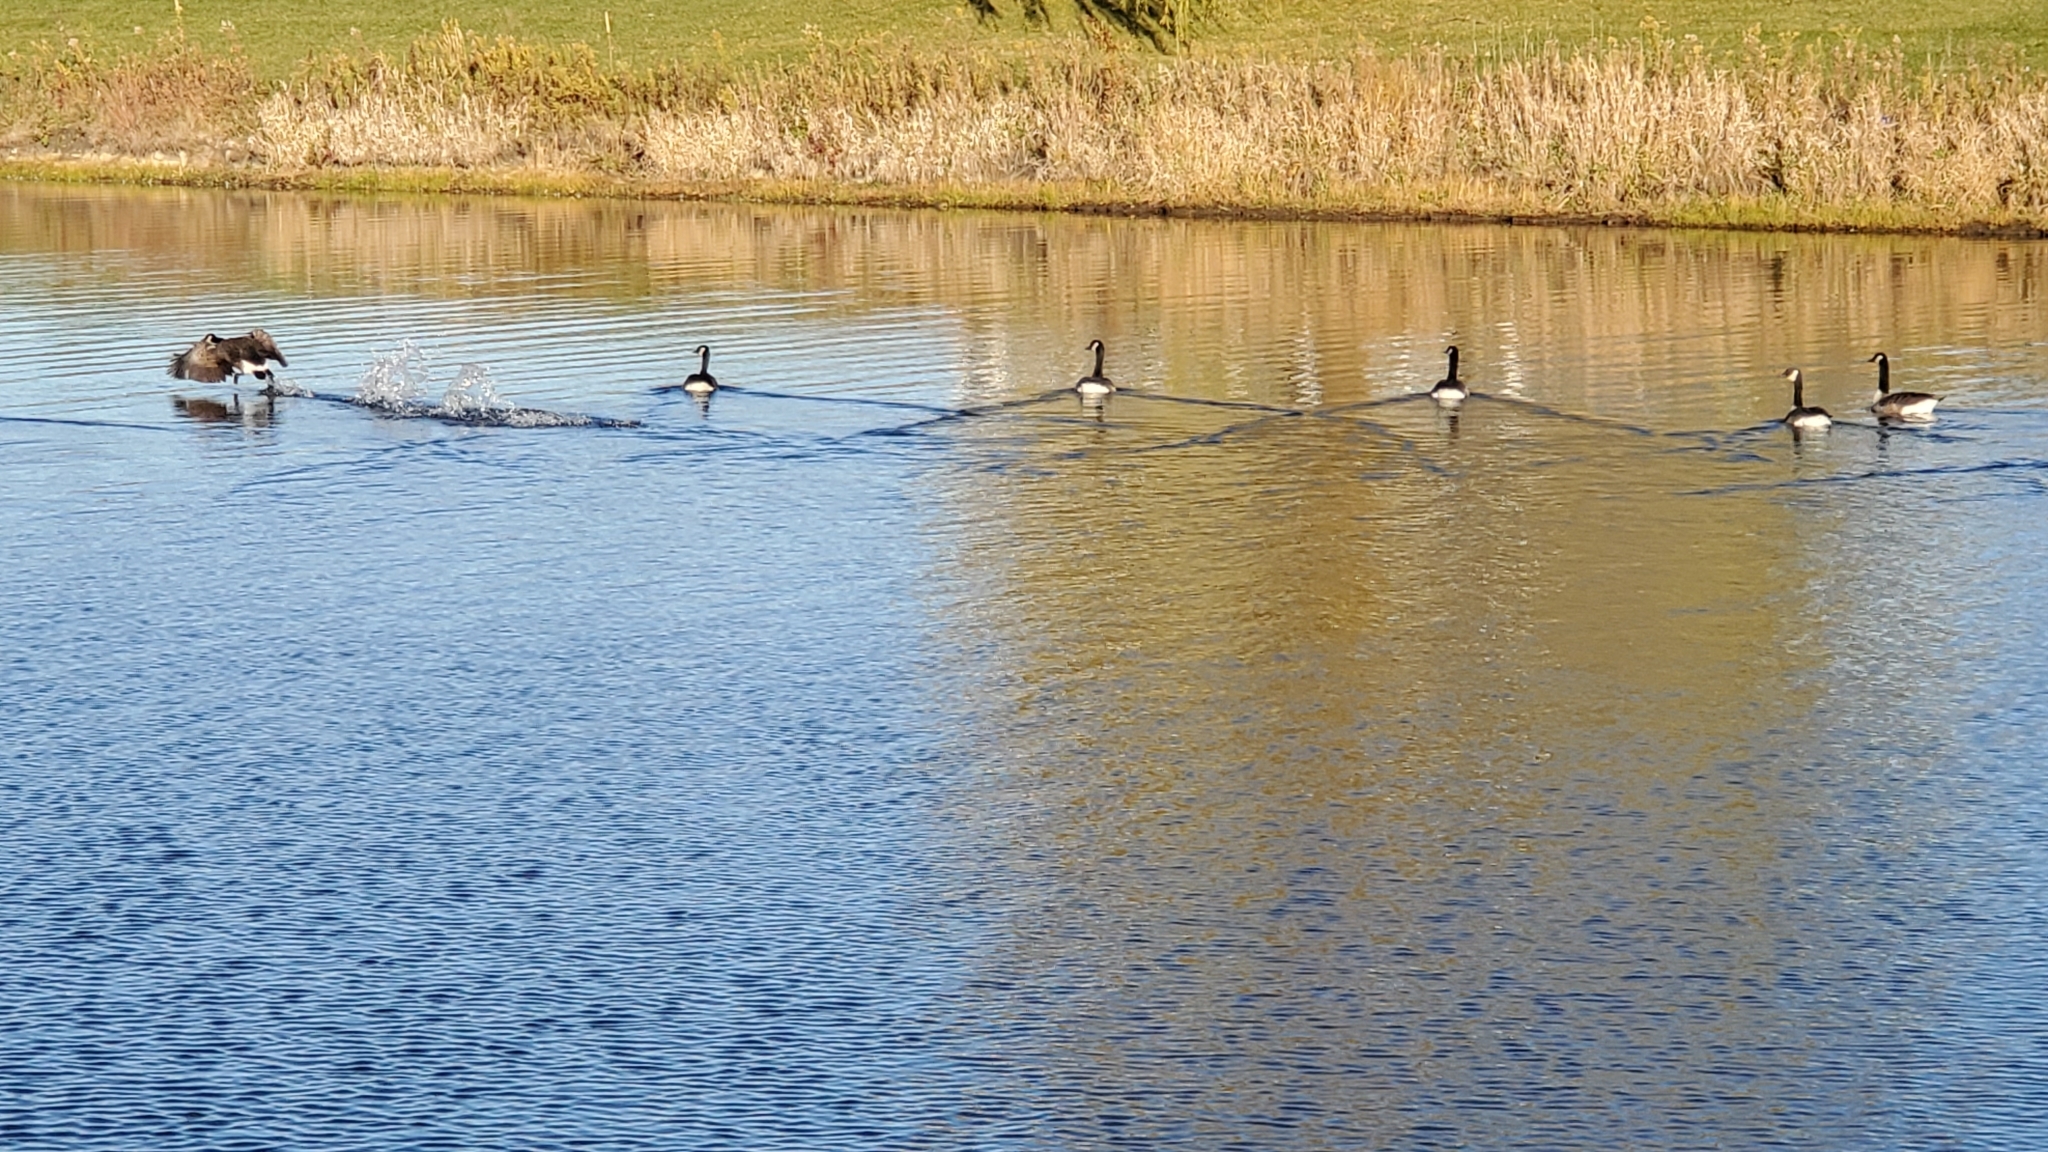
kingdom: Animalia
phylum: Chordata
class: Aves
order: Anseriformes
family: Anatidae
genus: Branta
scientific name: Branta canadensis
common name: Canada goose
